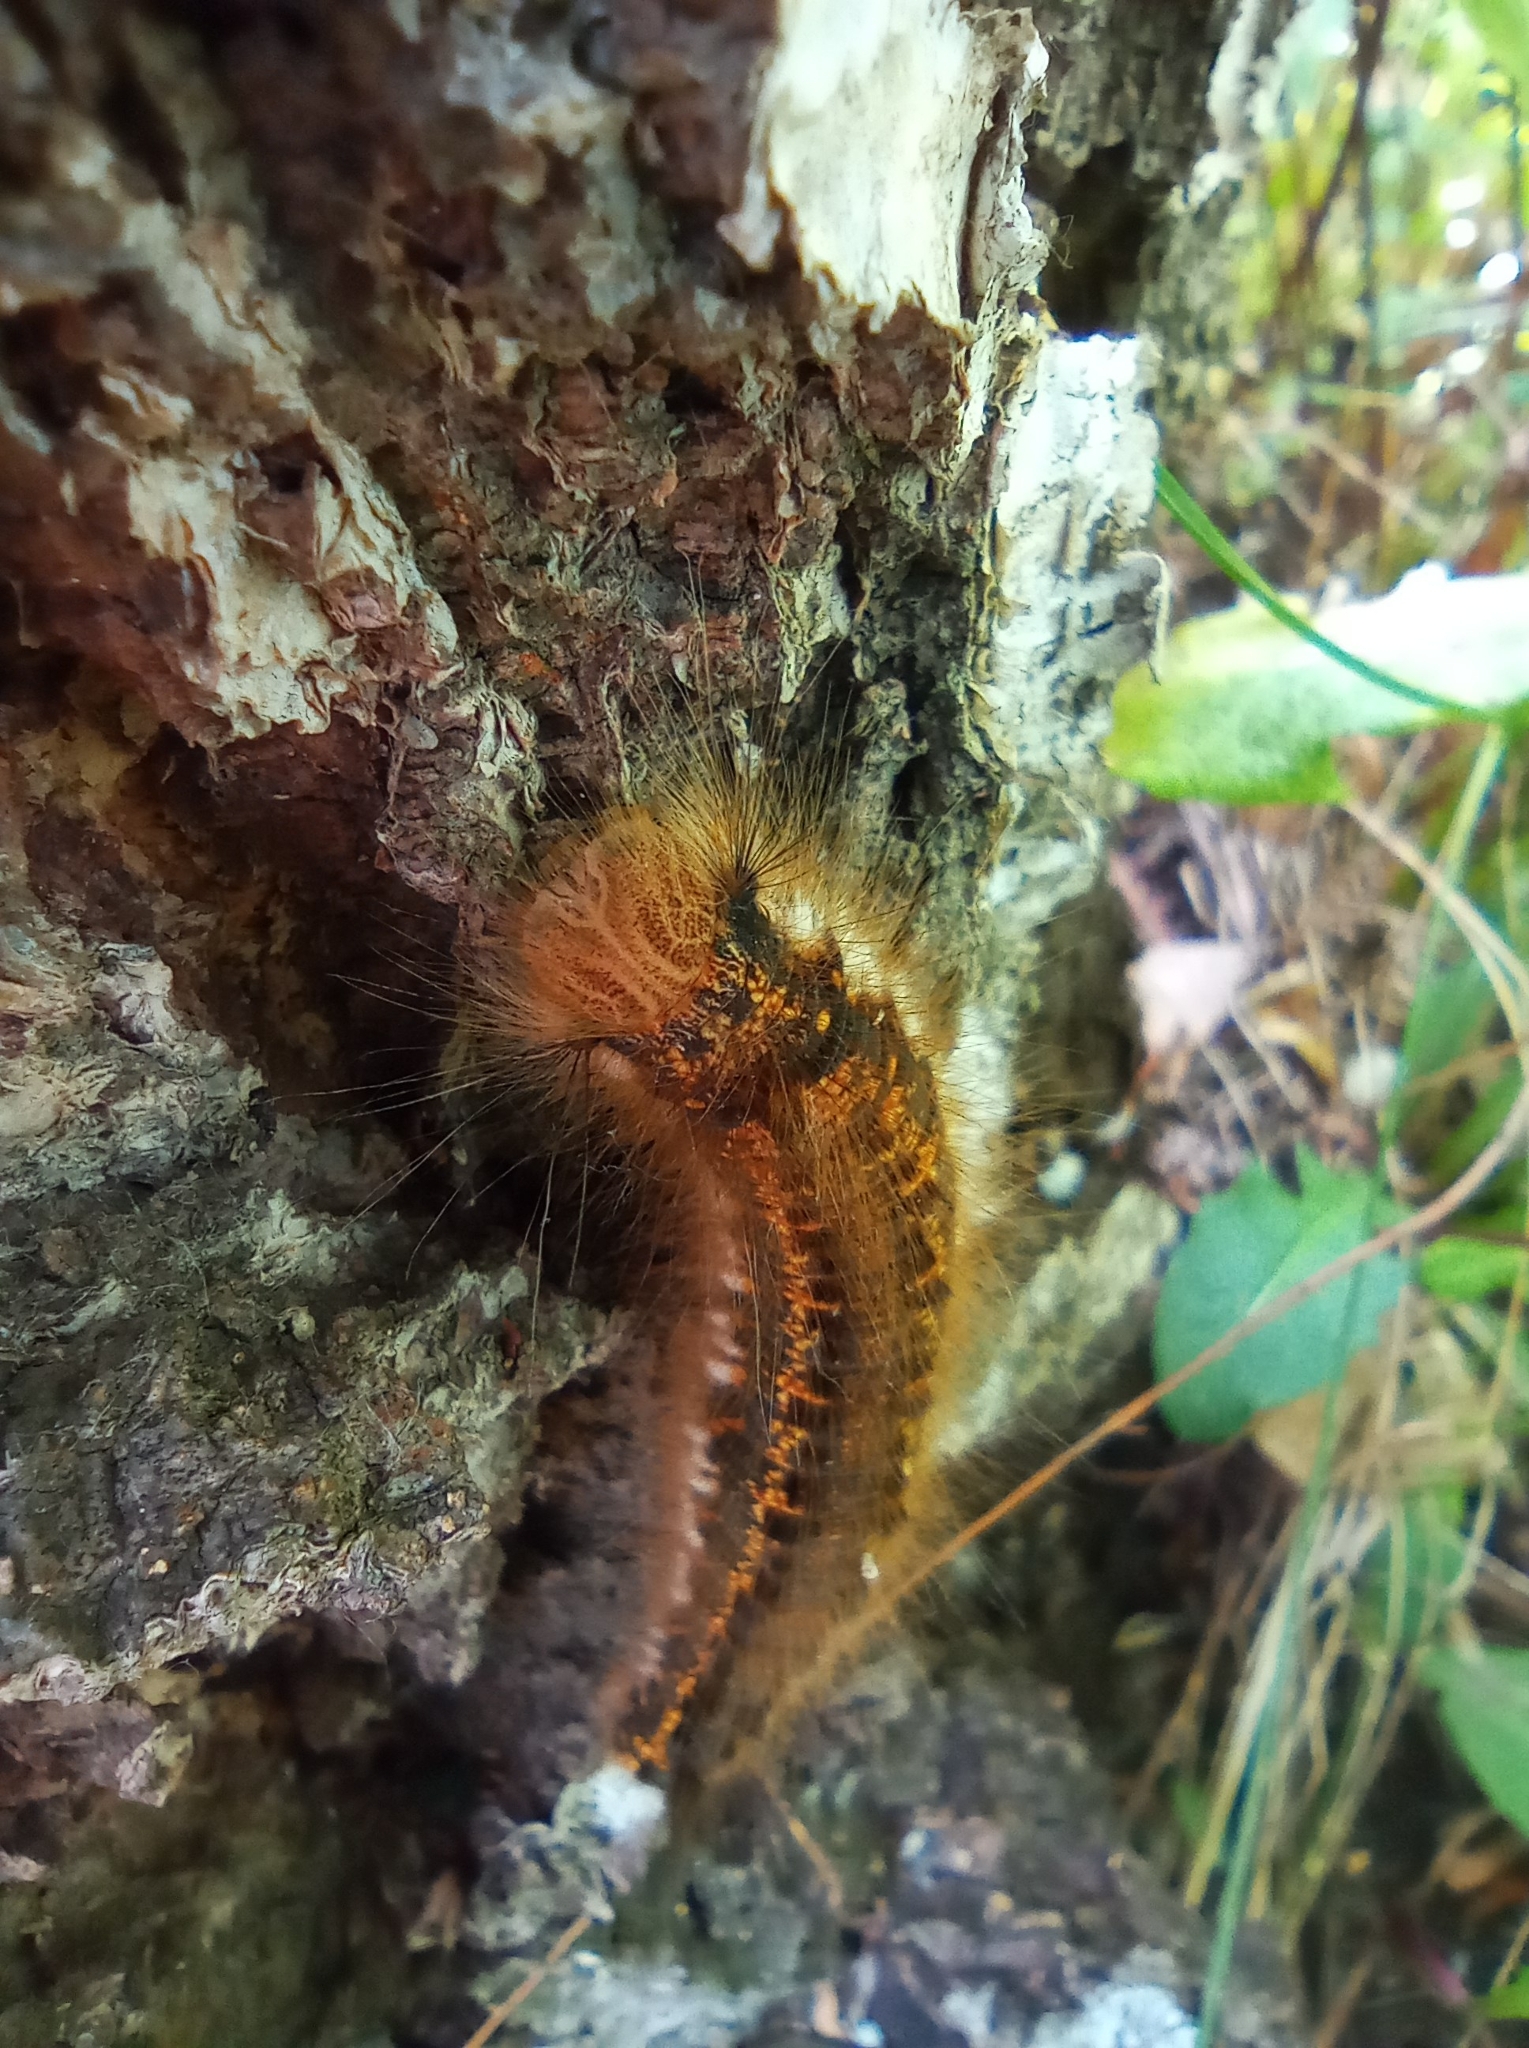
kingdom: Animalia
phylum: Arthropoda
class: Insecta
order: Lepidoptera
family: Lasiocampidae
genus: Euthrix
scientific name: Euthrix potatoria
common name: Drinker
